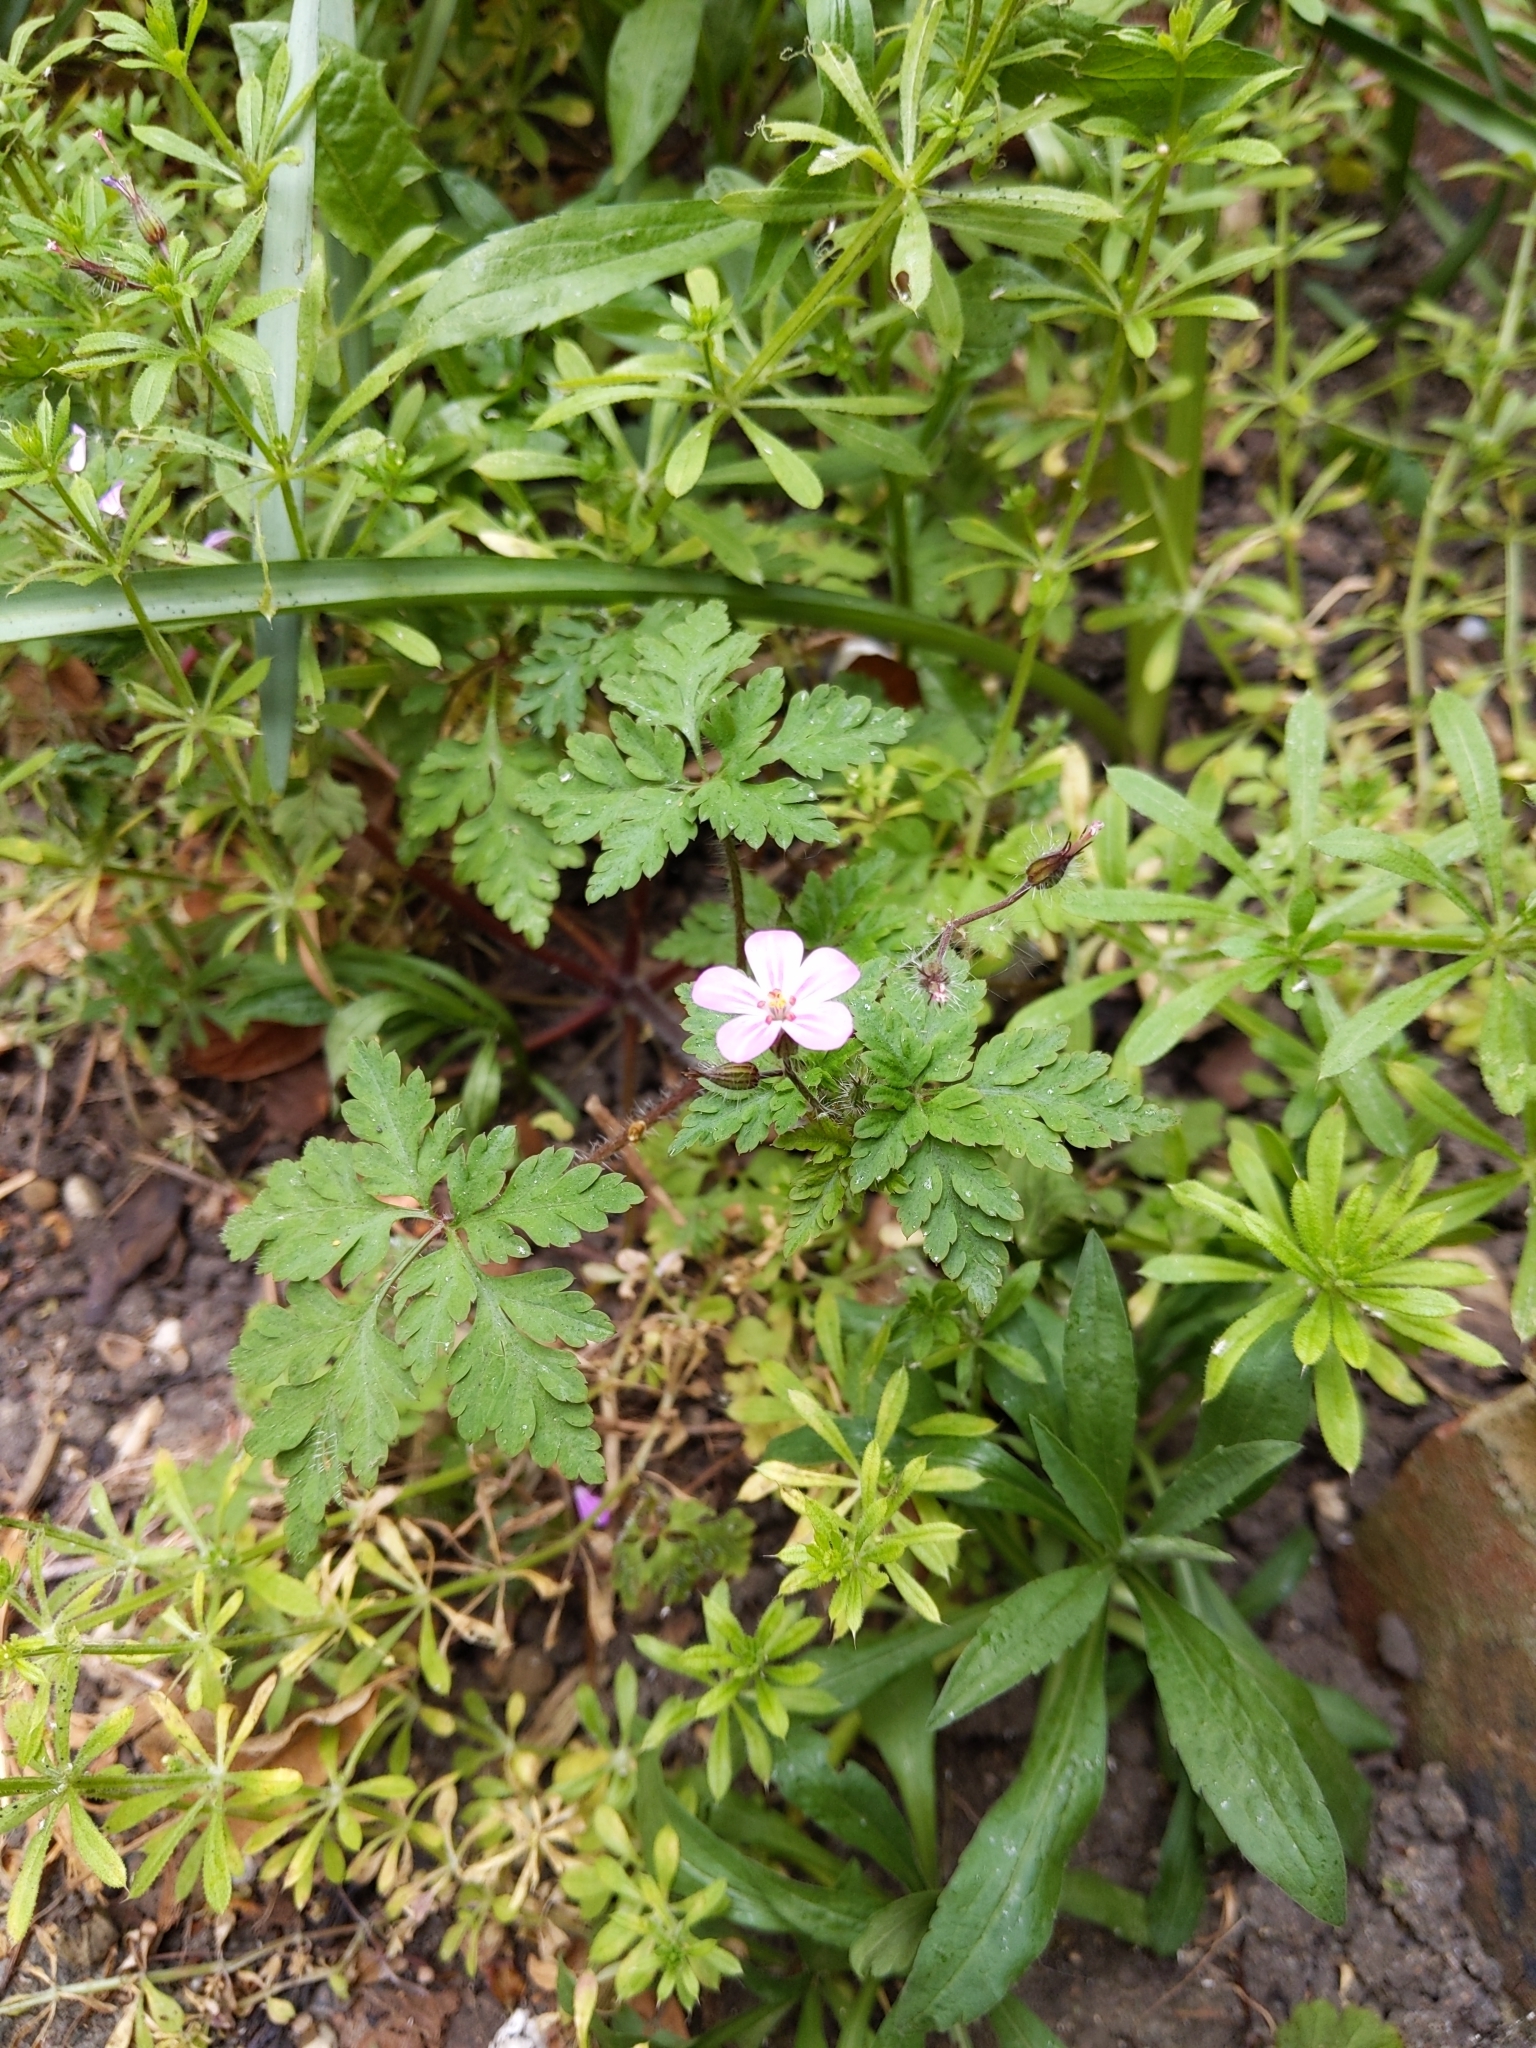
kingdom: Plantae
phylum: Tracheophyta
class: Magnoliopsida
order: Geraniales
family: Geraniaceae
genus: Geranium
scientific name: Geranium robertianum
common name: Herb-robert
